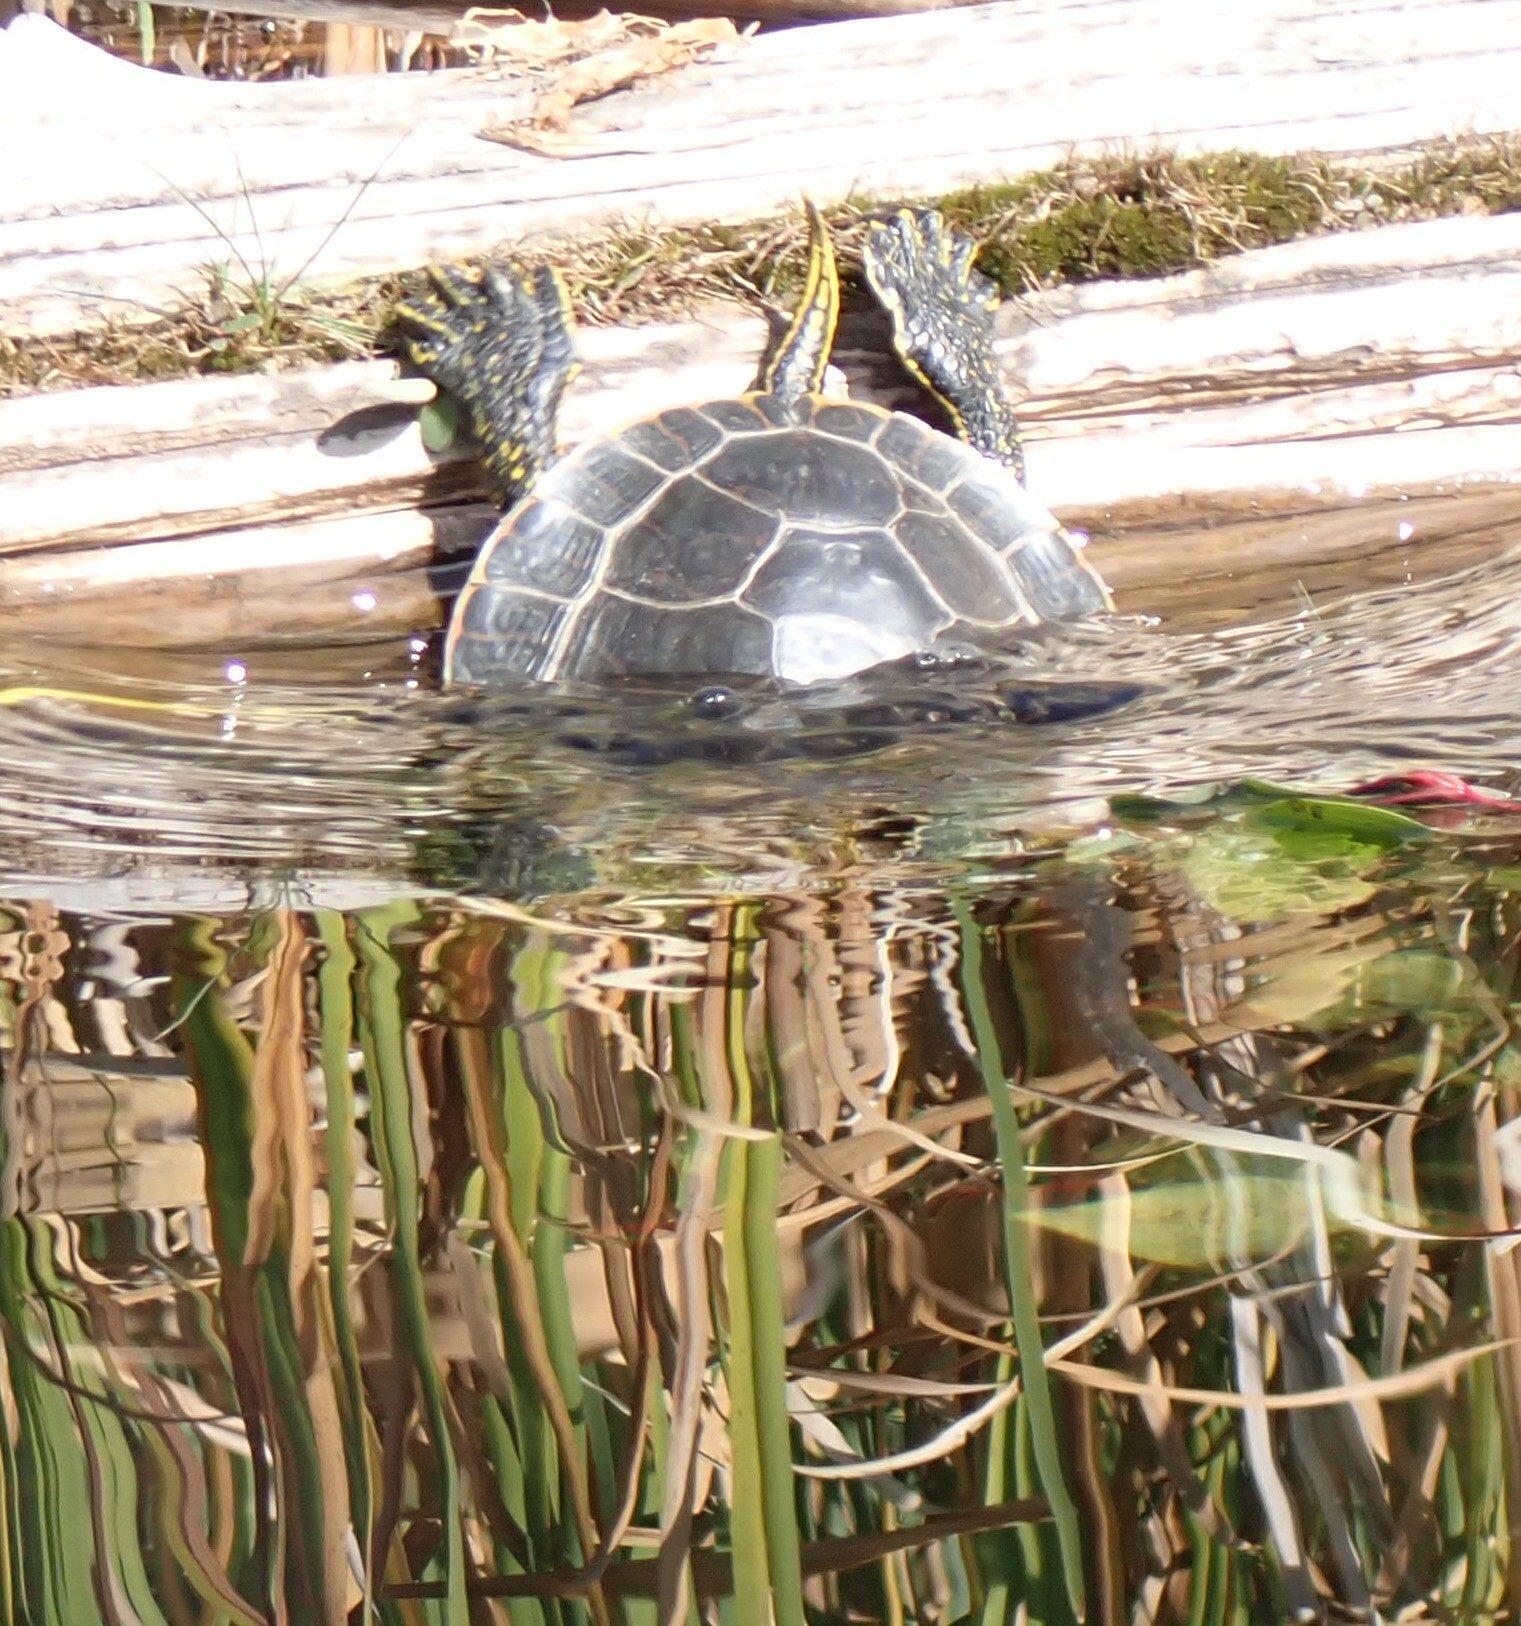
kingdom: Animalia
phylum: Chordata
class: Testudines
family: Emydidae
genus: Chrysemys
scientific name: Chrysemys picta
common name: Painted turtle
